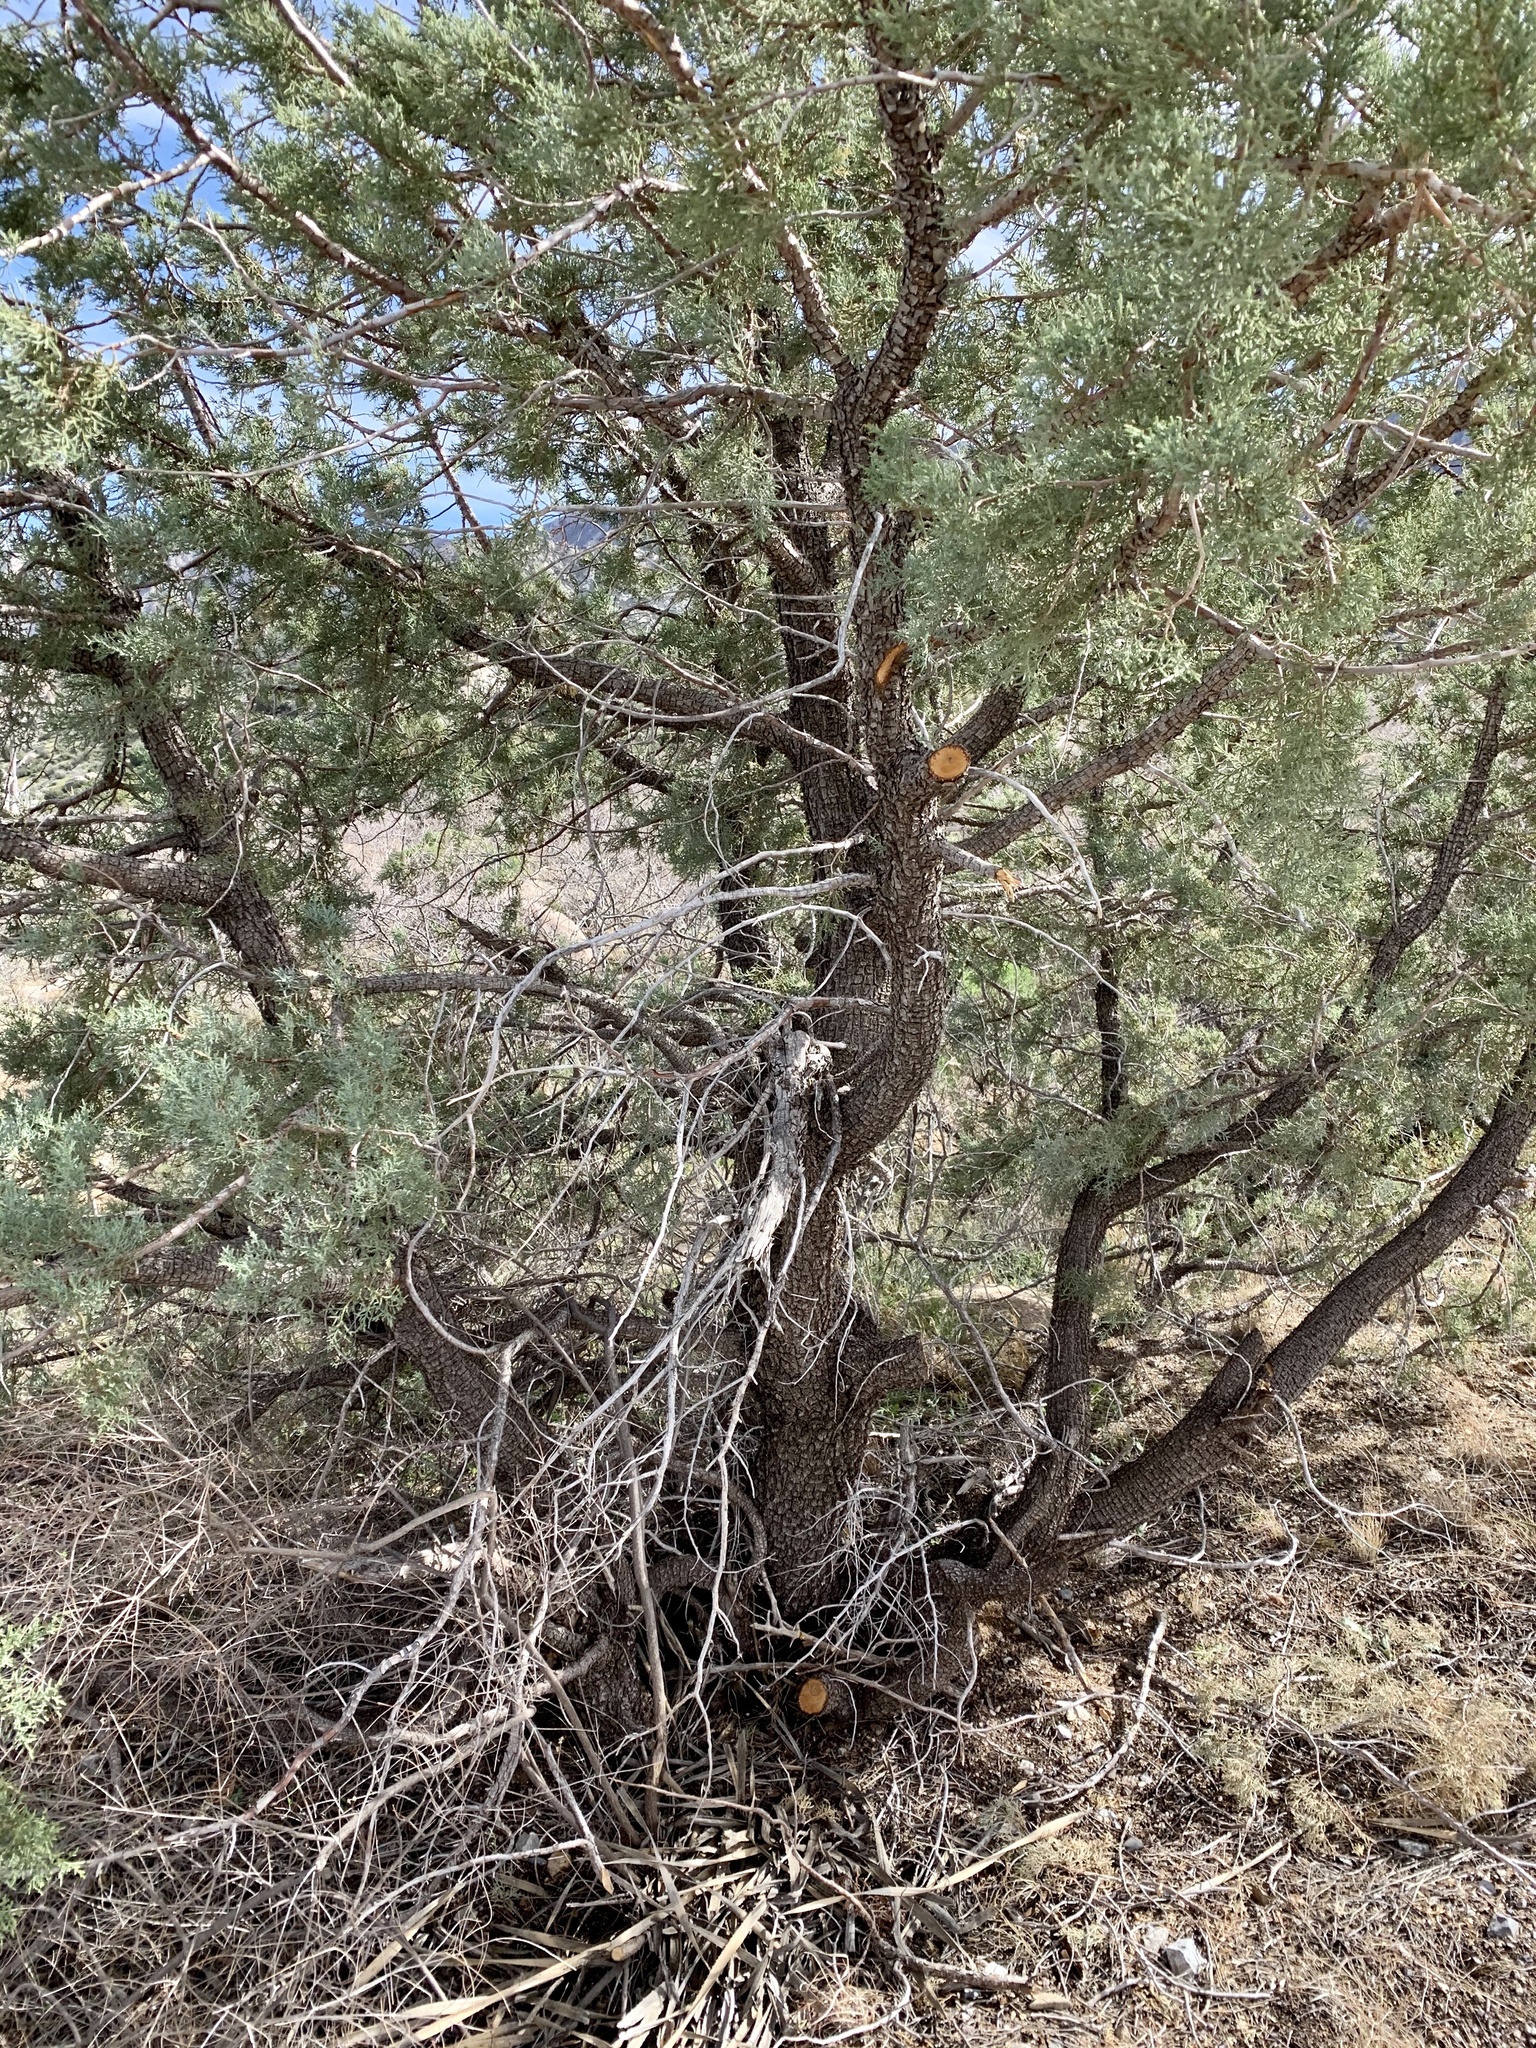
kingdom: Plantae
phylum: Tracheophyta
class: Pinopsida
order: Pinales
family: Cupressaceae
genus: Juniperus
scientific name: Juniperus deppeana
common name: Alligator juniper
